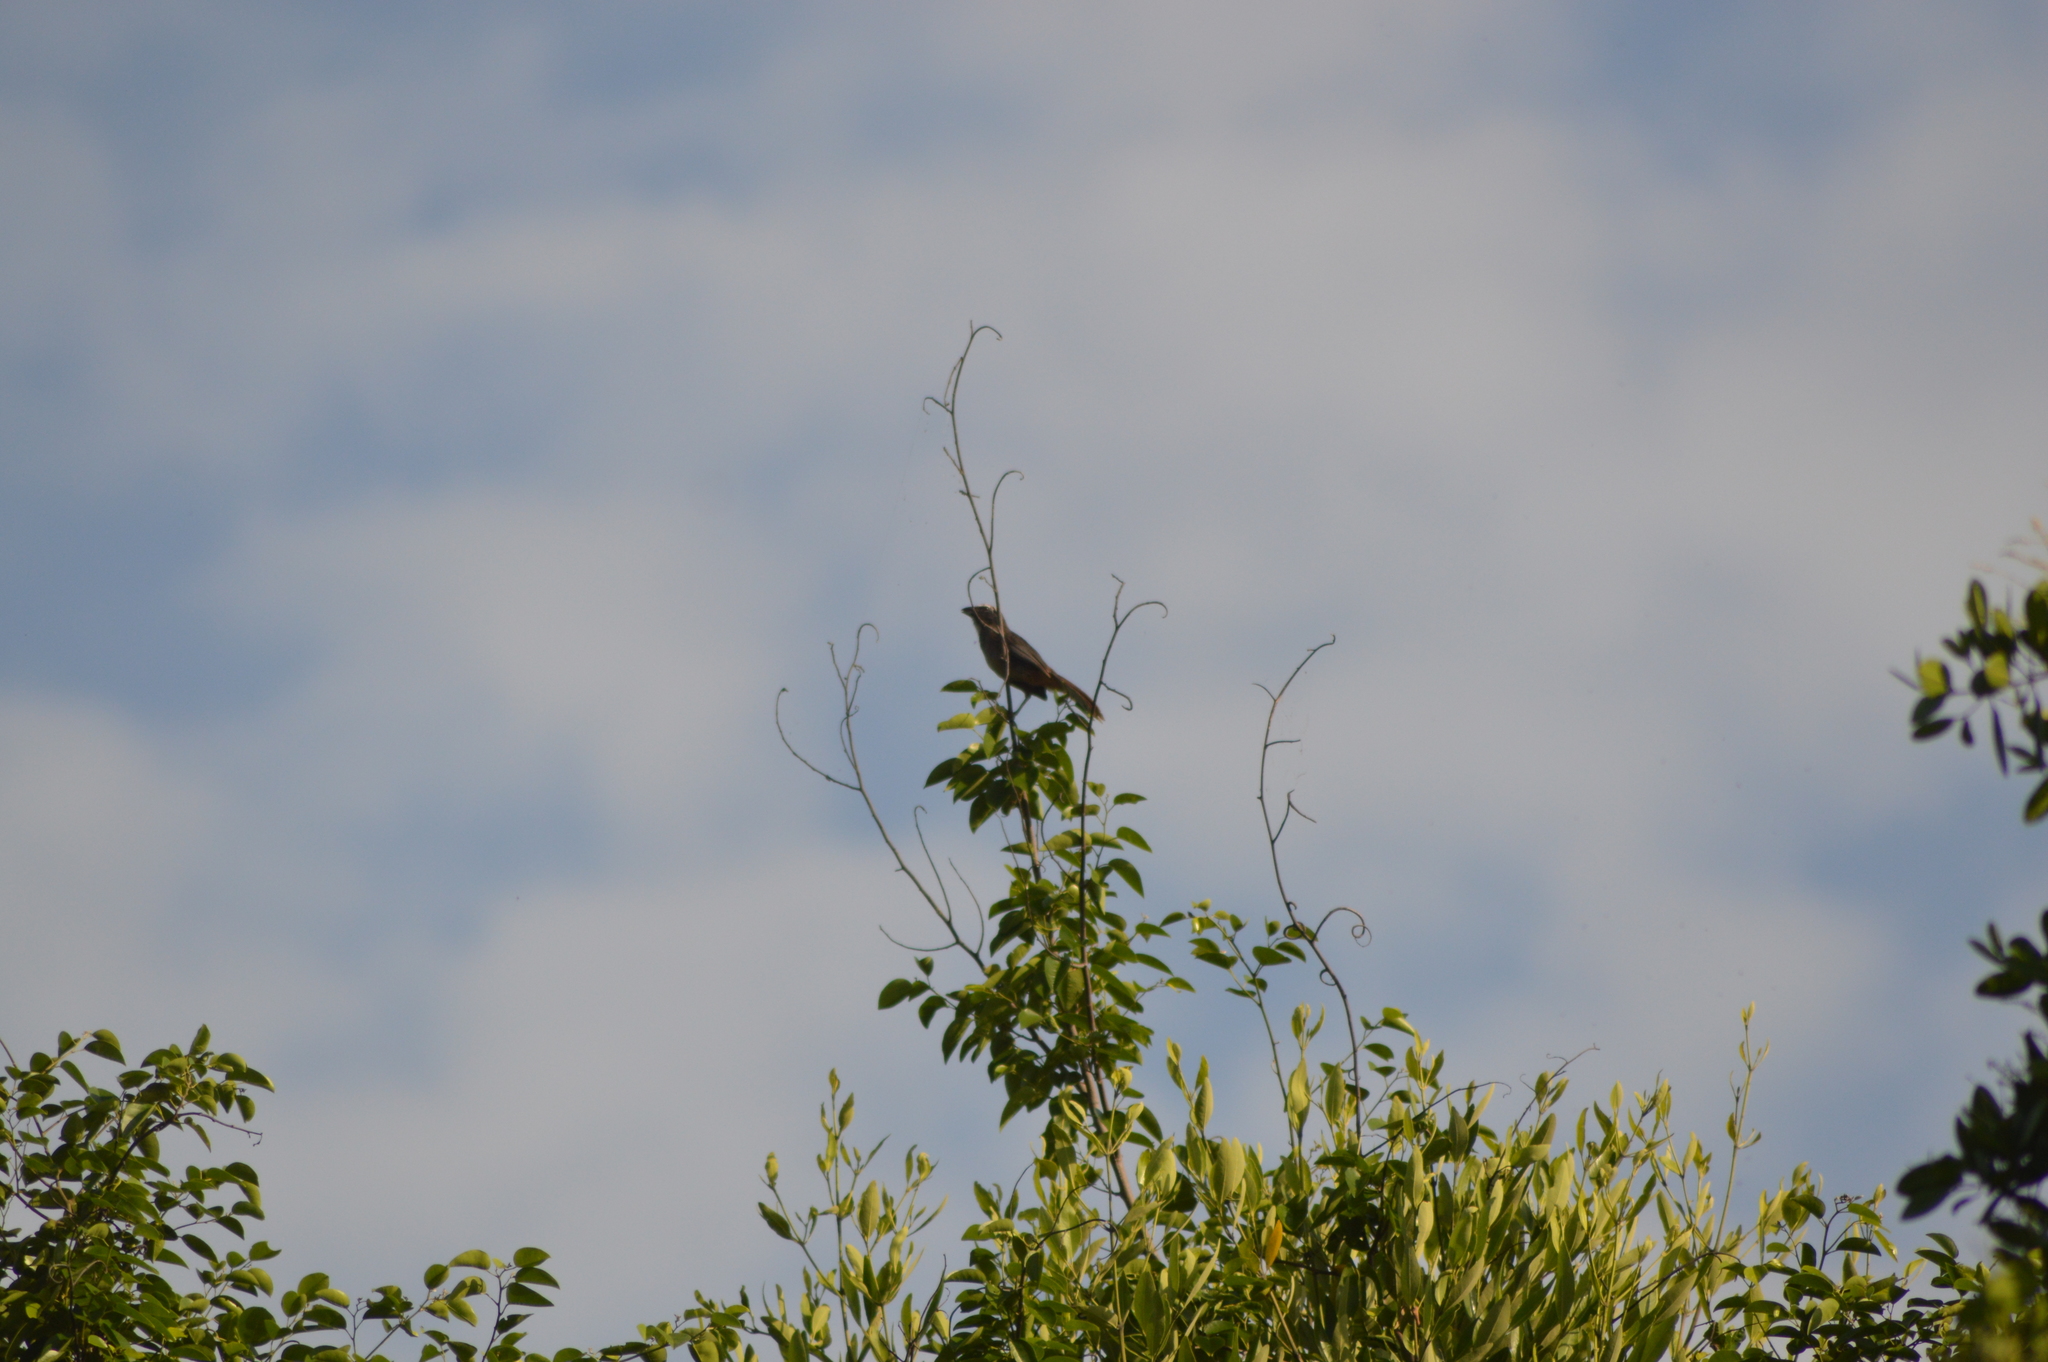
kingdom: Animalia
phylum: Chordata
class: Aves
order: Passeriformes
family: Thraupidae
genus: Saltator
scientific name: Saltator grandis
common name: Cinnamon-bellied saltator
